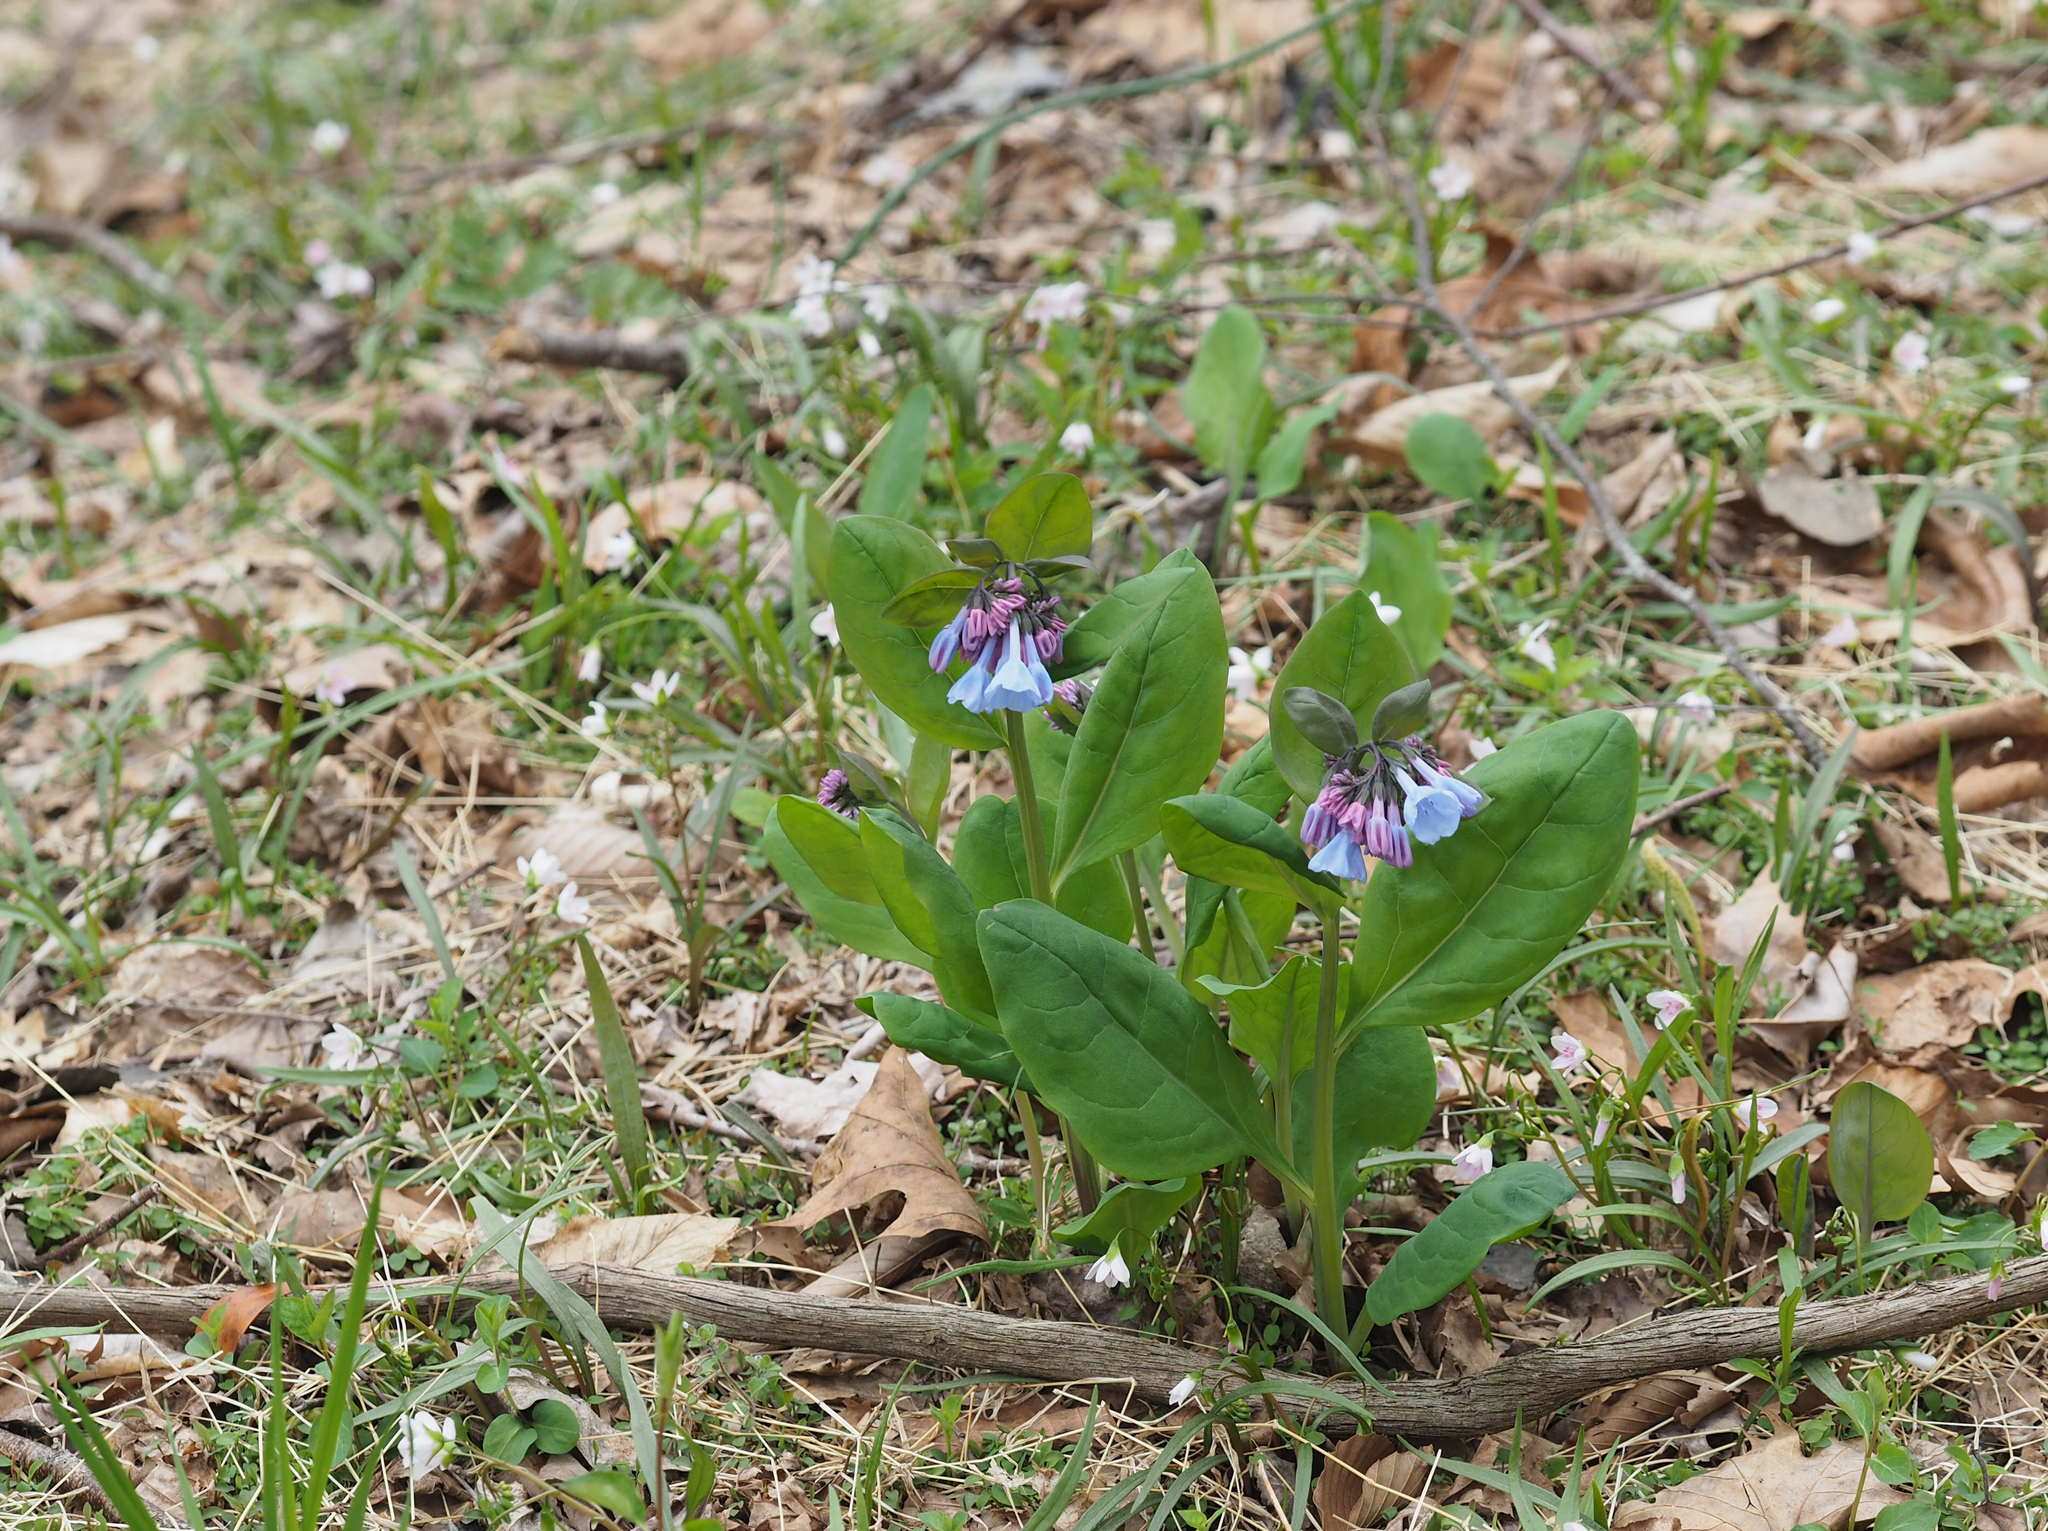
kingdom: Plantae
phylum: Tracheophyta
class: Magnoliopsida
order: Boraginales
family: Boraginaceae
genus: Mertensia
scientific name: Mertensia virginica
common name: Virginia bluebells
